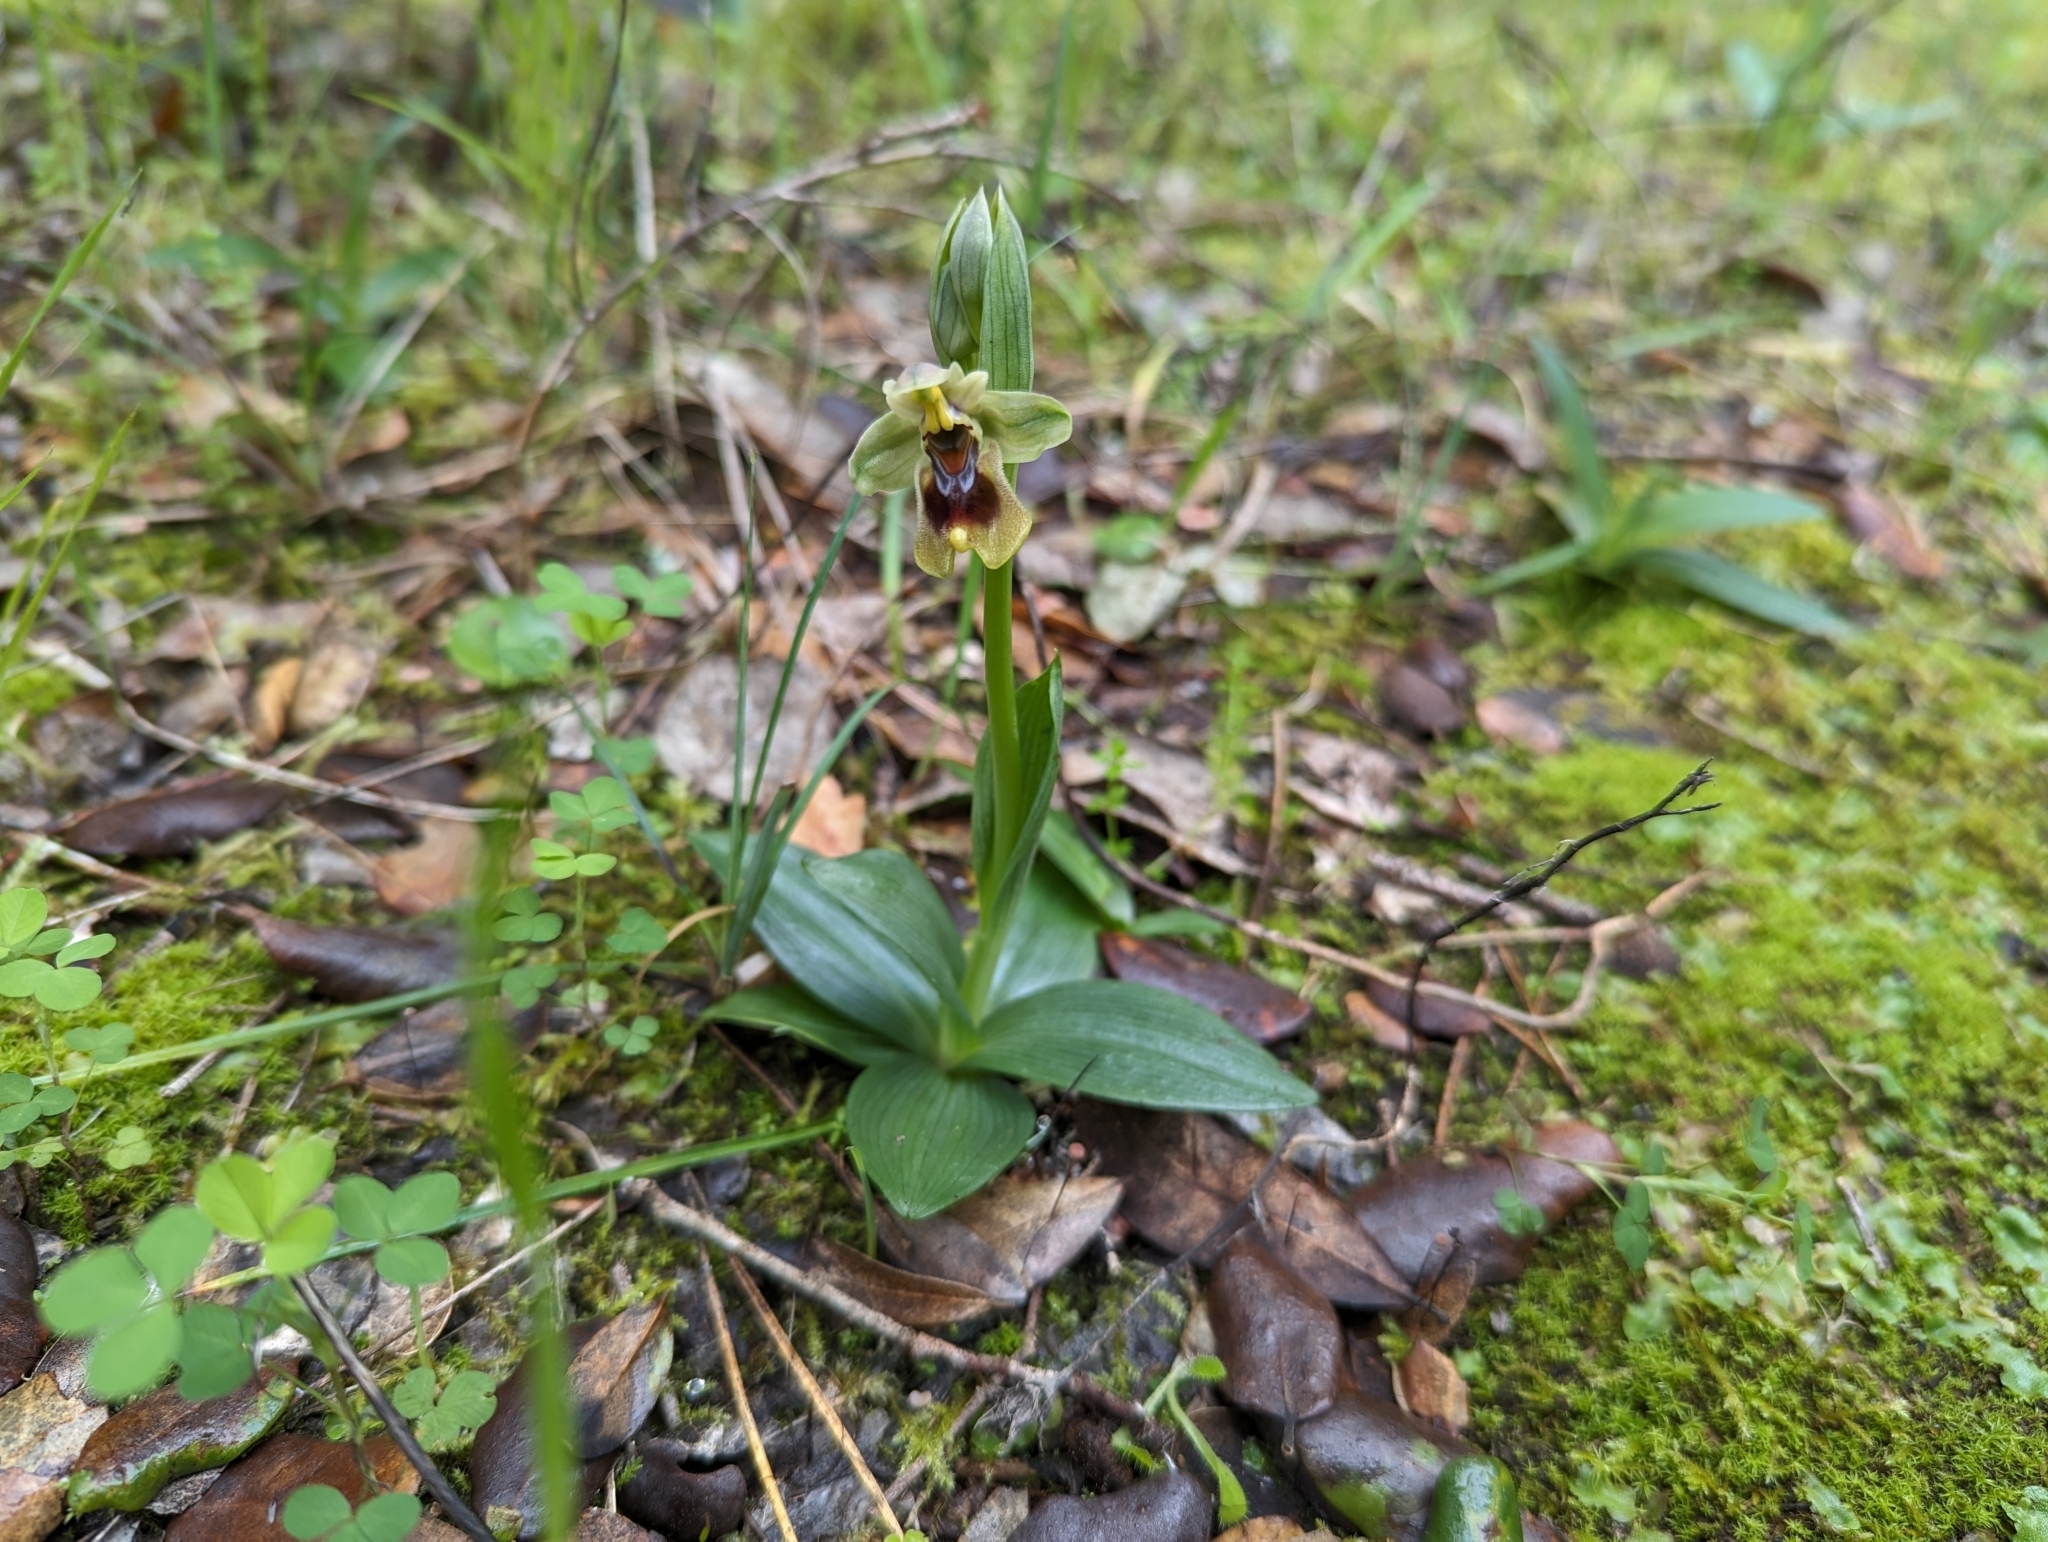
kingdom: Plantae
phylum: Tracheophyta
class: Liliopsida
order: Asparagales
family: Orchidaceae
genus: Ophrys
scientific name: Ophrys tenthredinifera
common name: Sawfly orchid
